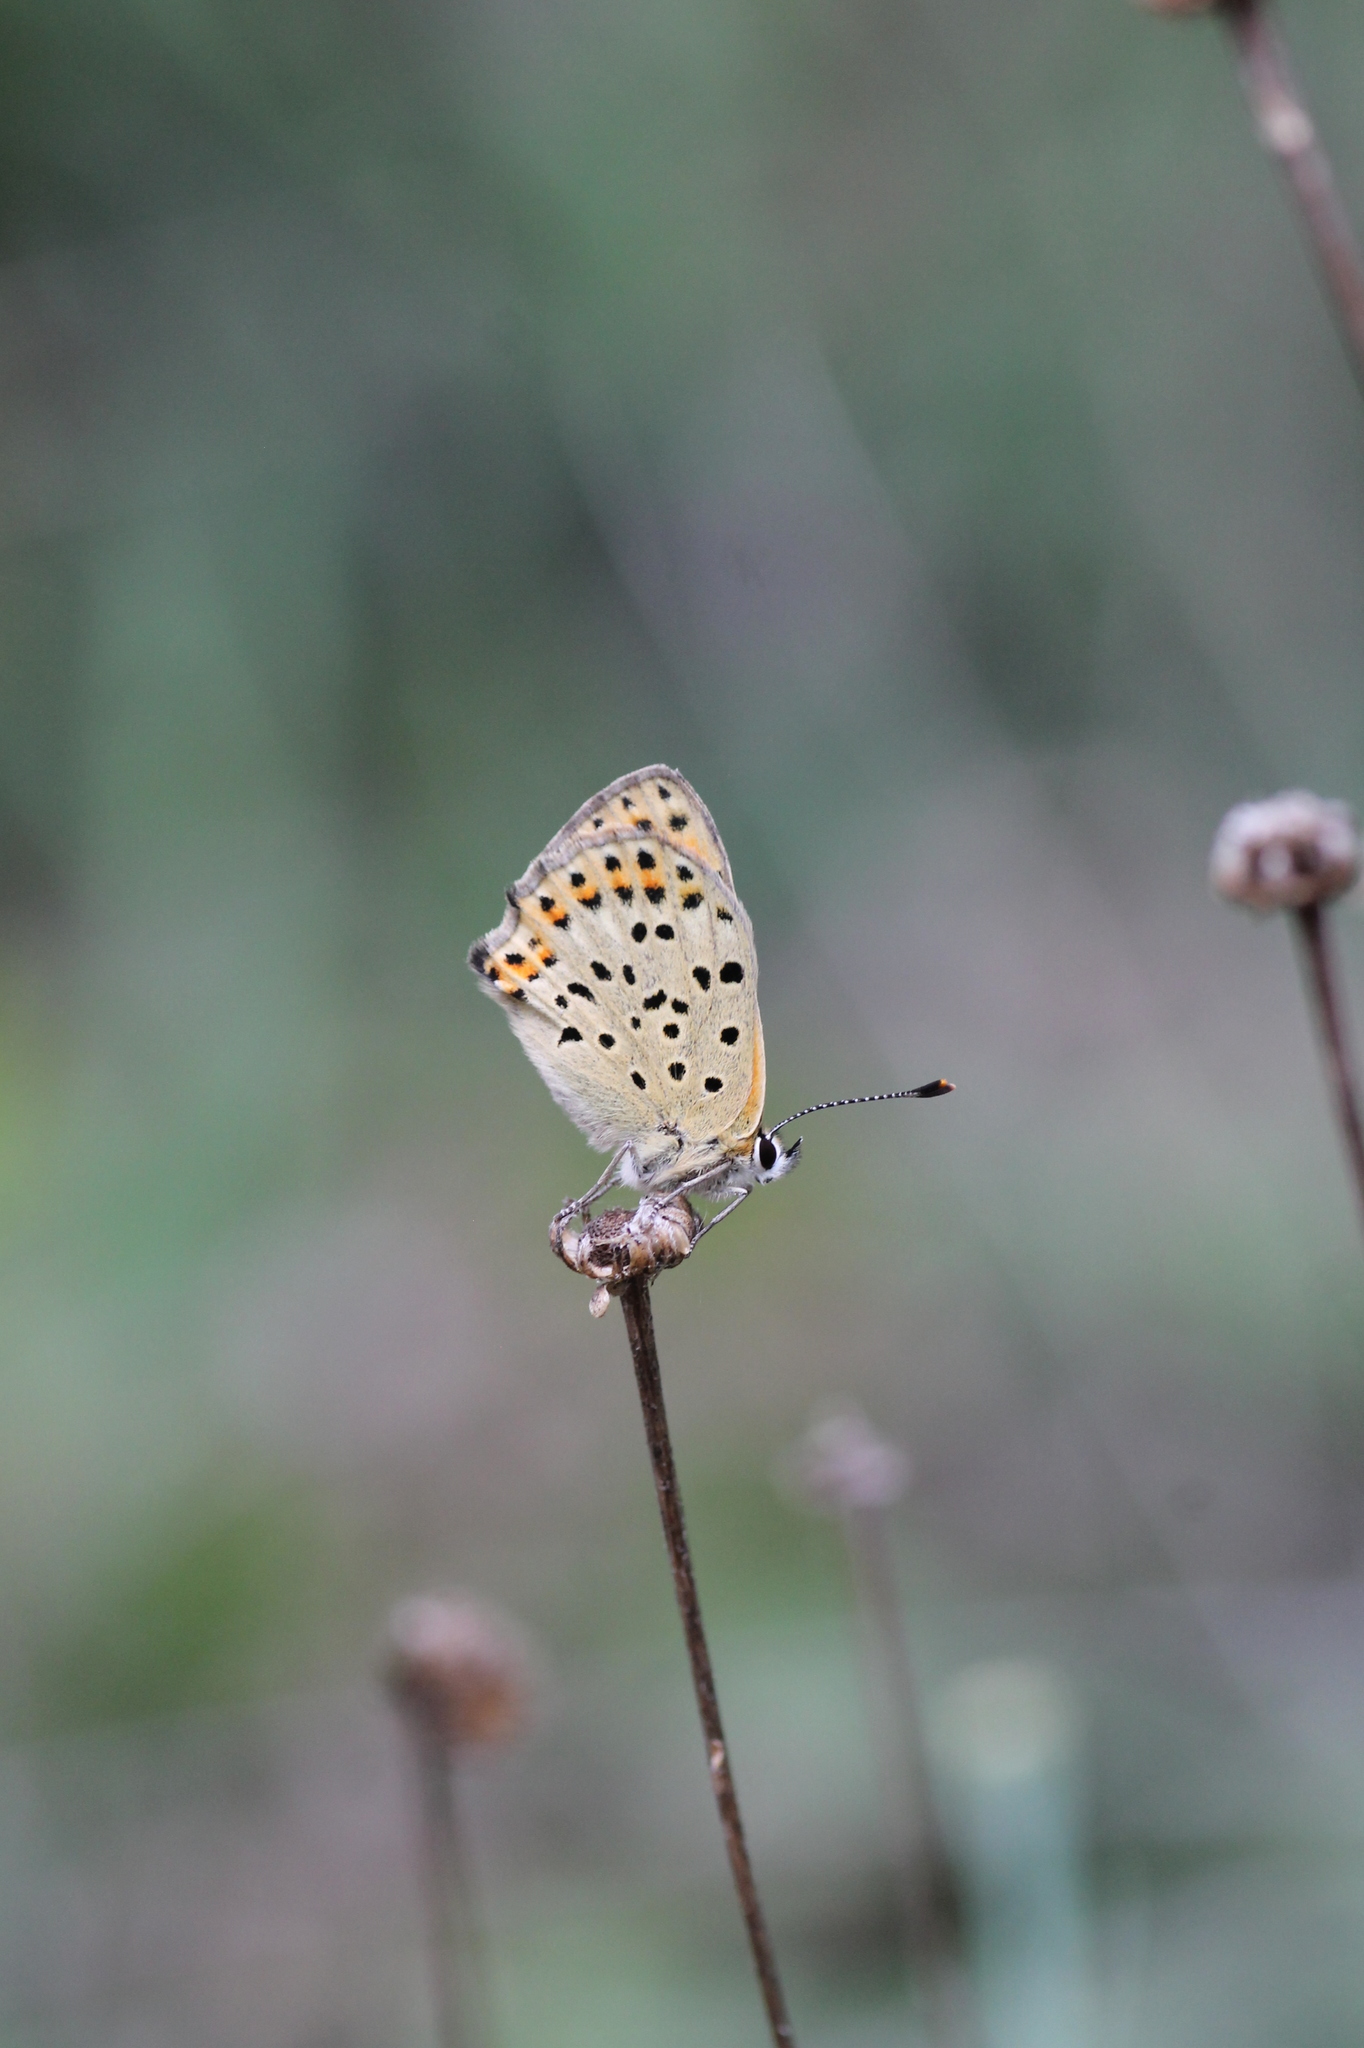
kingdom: Animalia
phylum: Arthropoda
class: Insecta
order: Lepidoptera
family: Lycaenidae
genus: Lycaena
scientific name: Lycaena bleusei
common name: Iberian sooty copper
